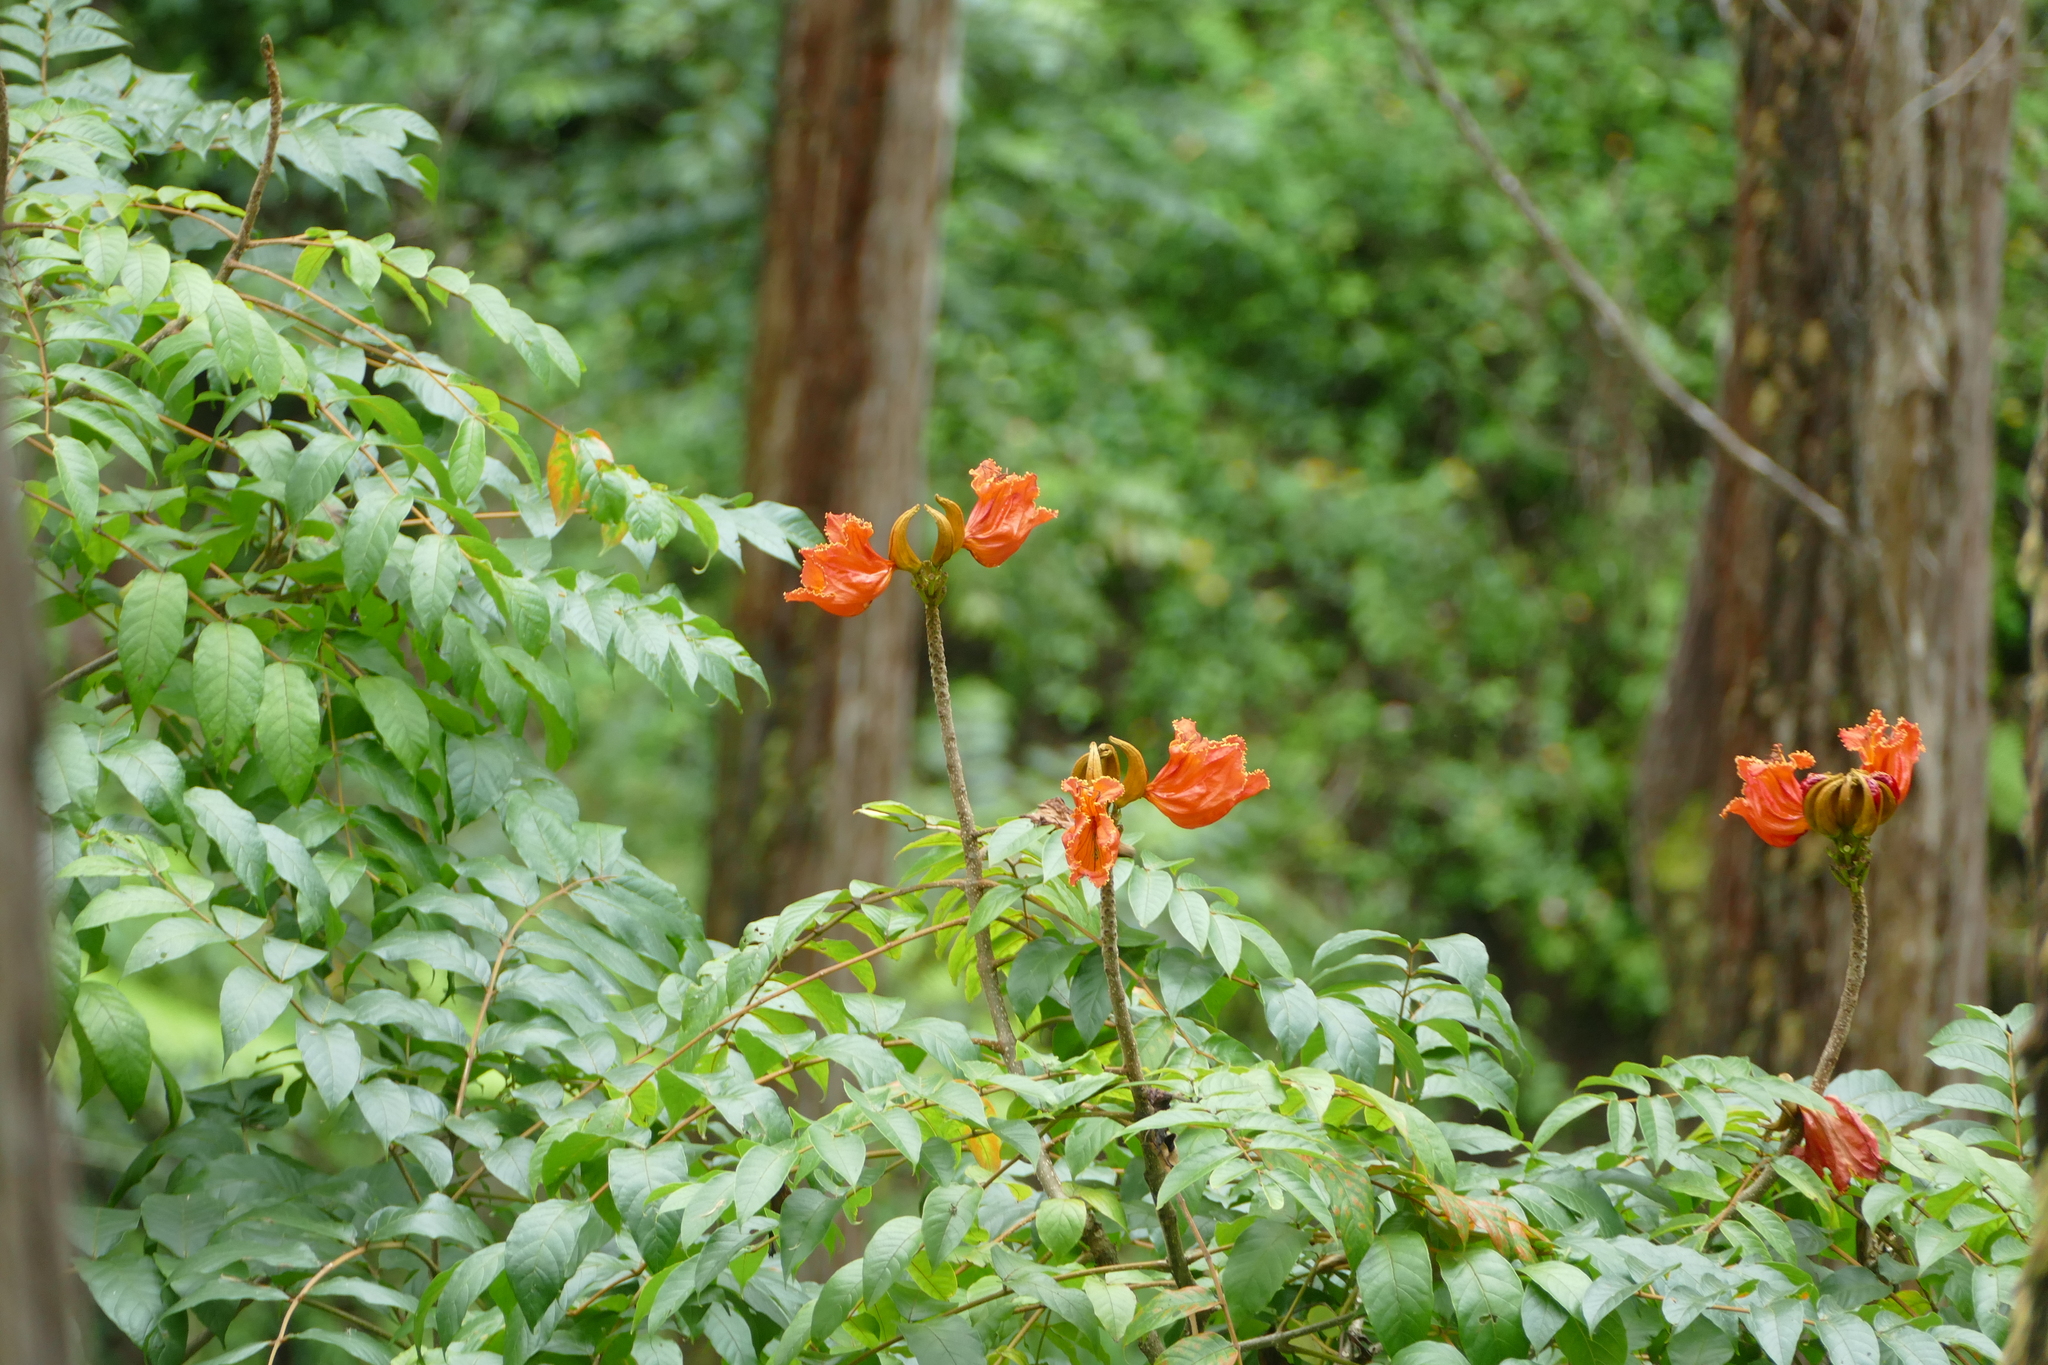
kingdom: Plantae
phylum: Tracheophyta
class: Magnoliopsida
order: Lamiales
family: Bignoniaceae
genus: Spathodea
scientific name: Spathodea campanulata
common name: African tuliptree
